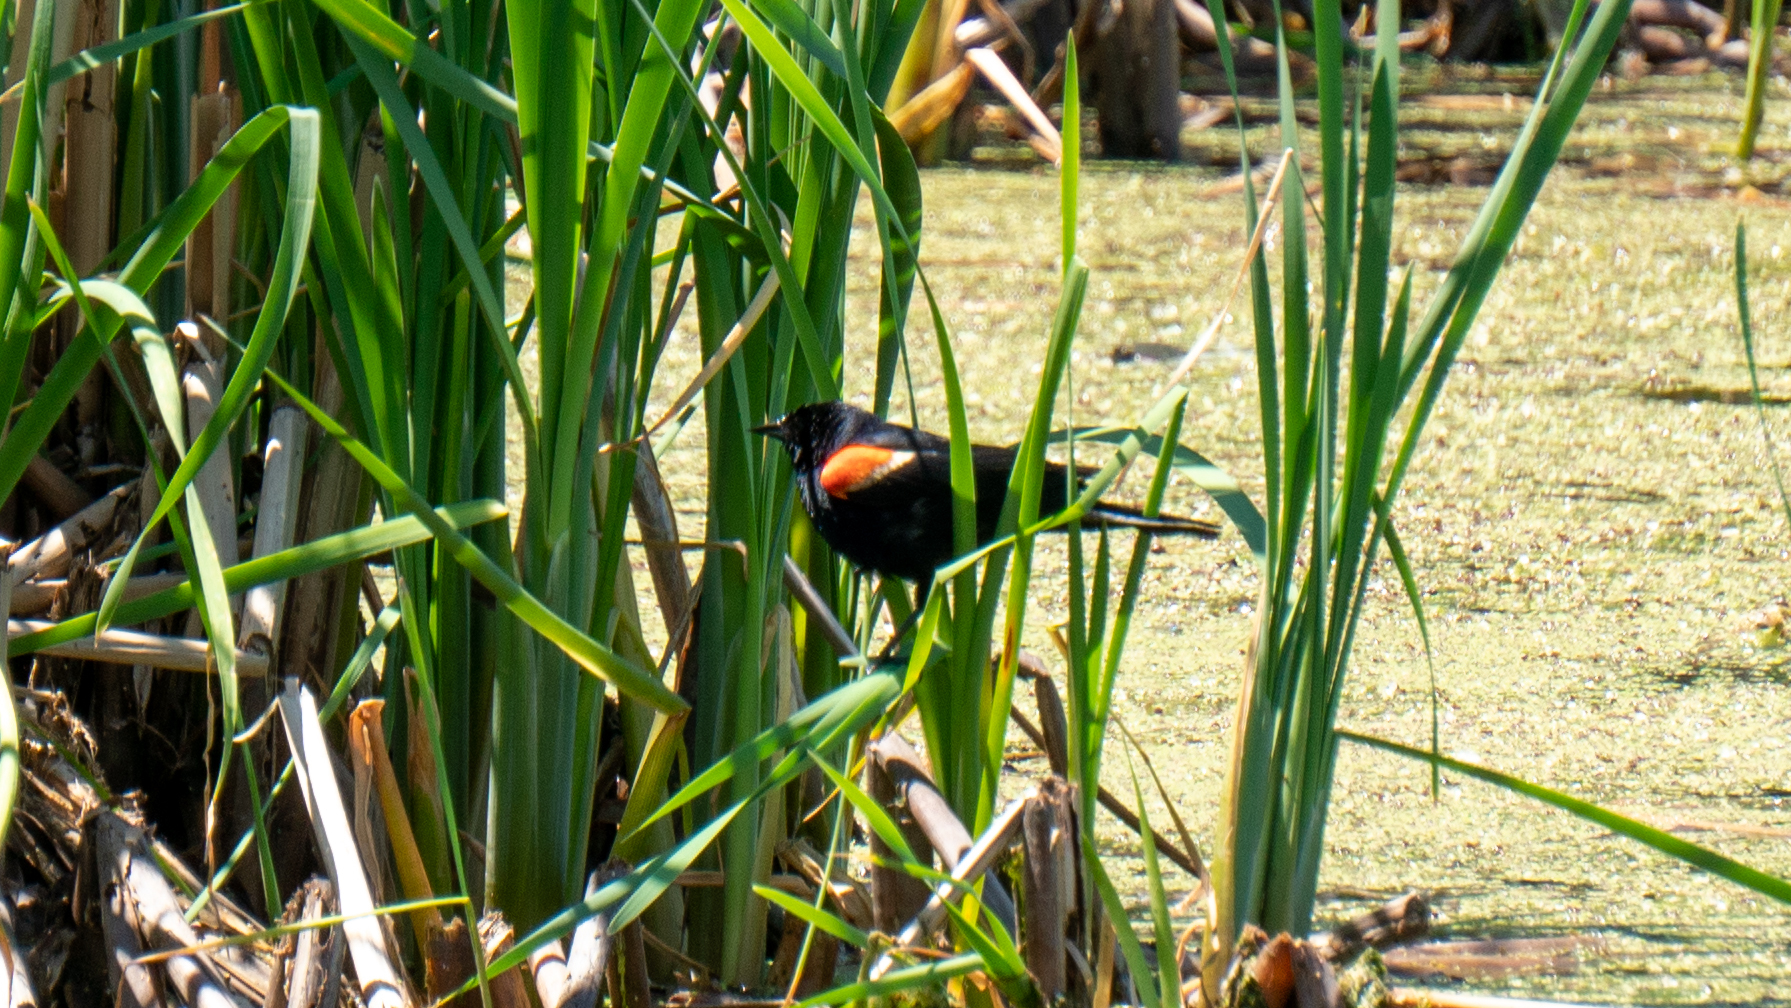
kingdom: Animalia
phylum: Chordata
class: Aves
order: Passeriformes
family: Icteridae
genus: Agelaius
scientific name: Agelaius phoeniceus
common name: Red-winged blackbird
